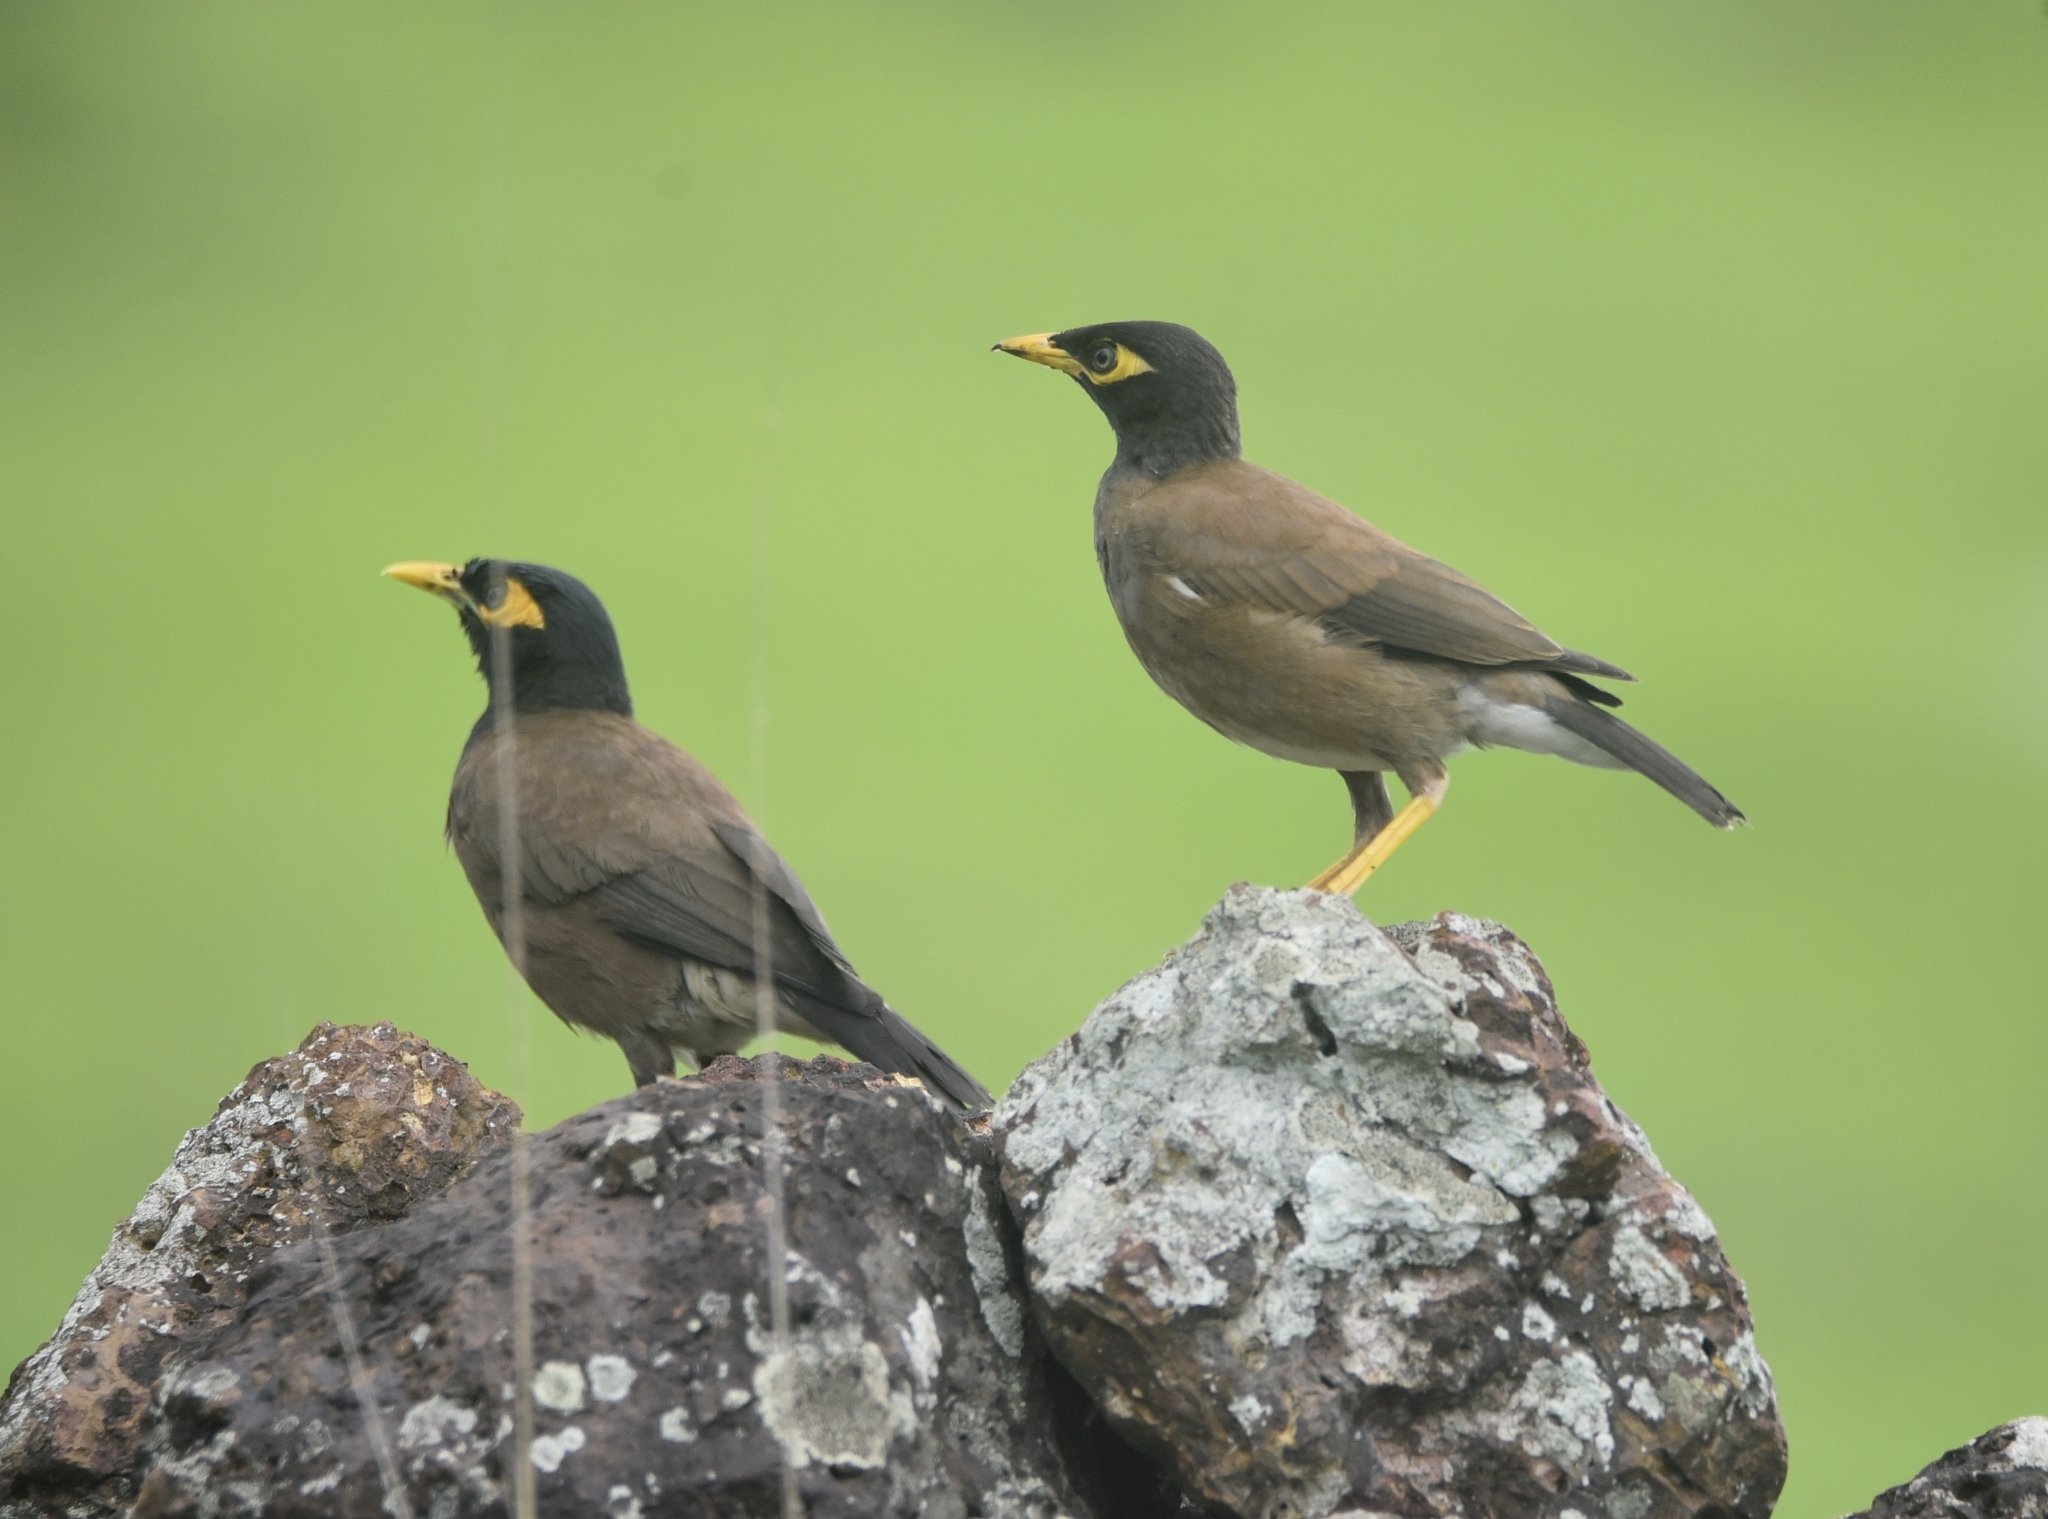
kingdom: Animalia
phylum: Chordata
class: Aves
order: Passeriformes
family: Sturnidae
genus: Acridotheres
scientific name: Acridotheres tristis
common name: Common myna
